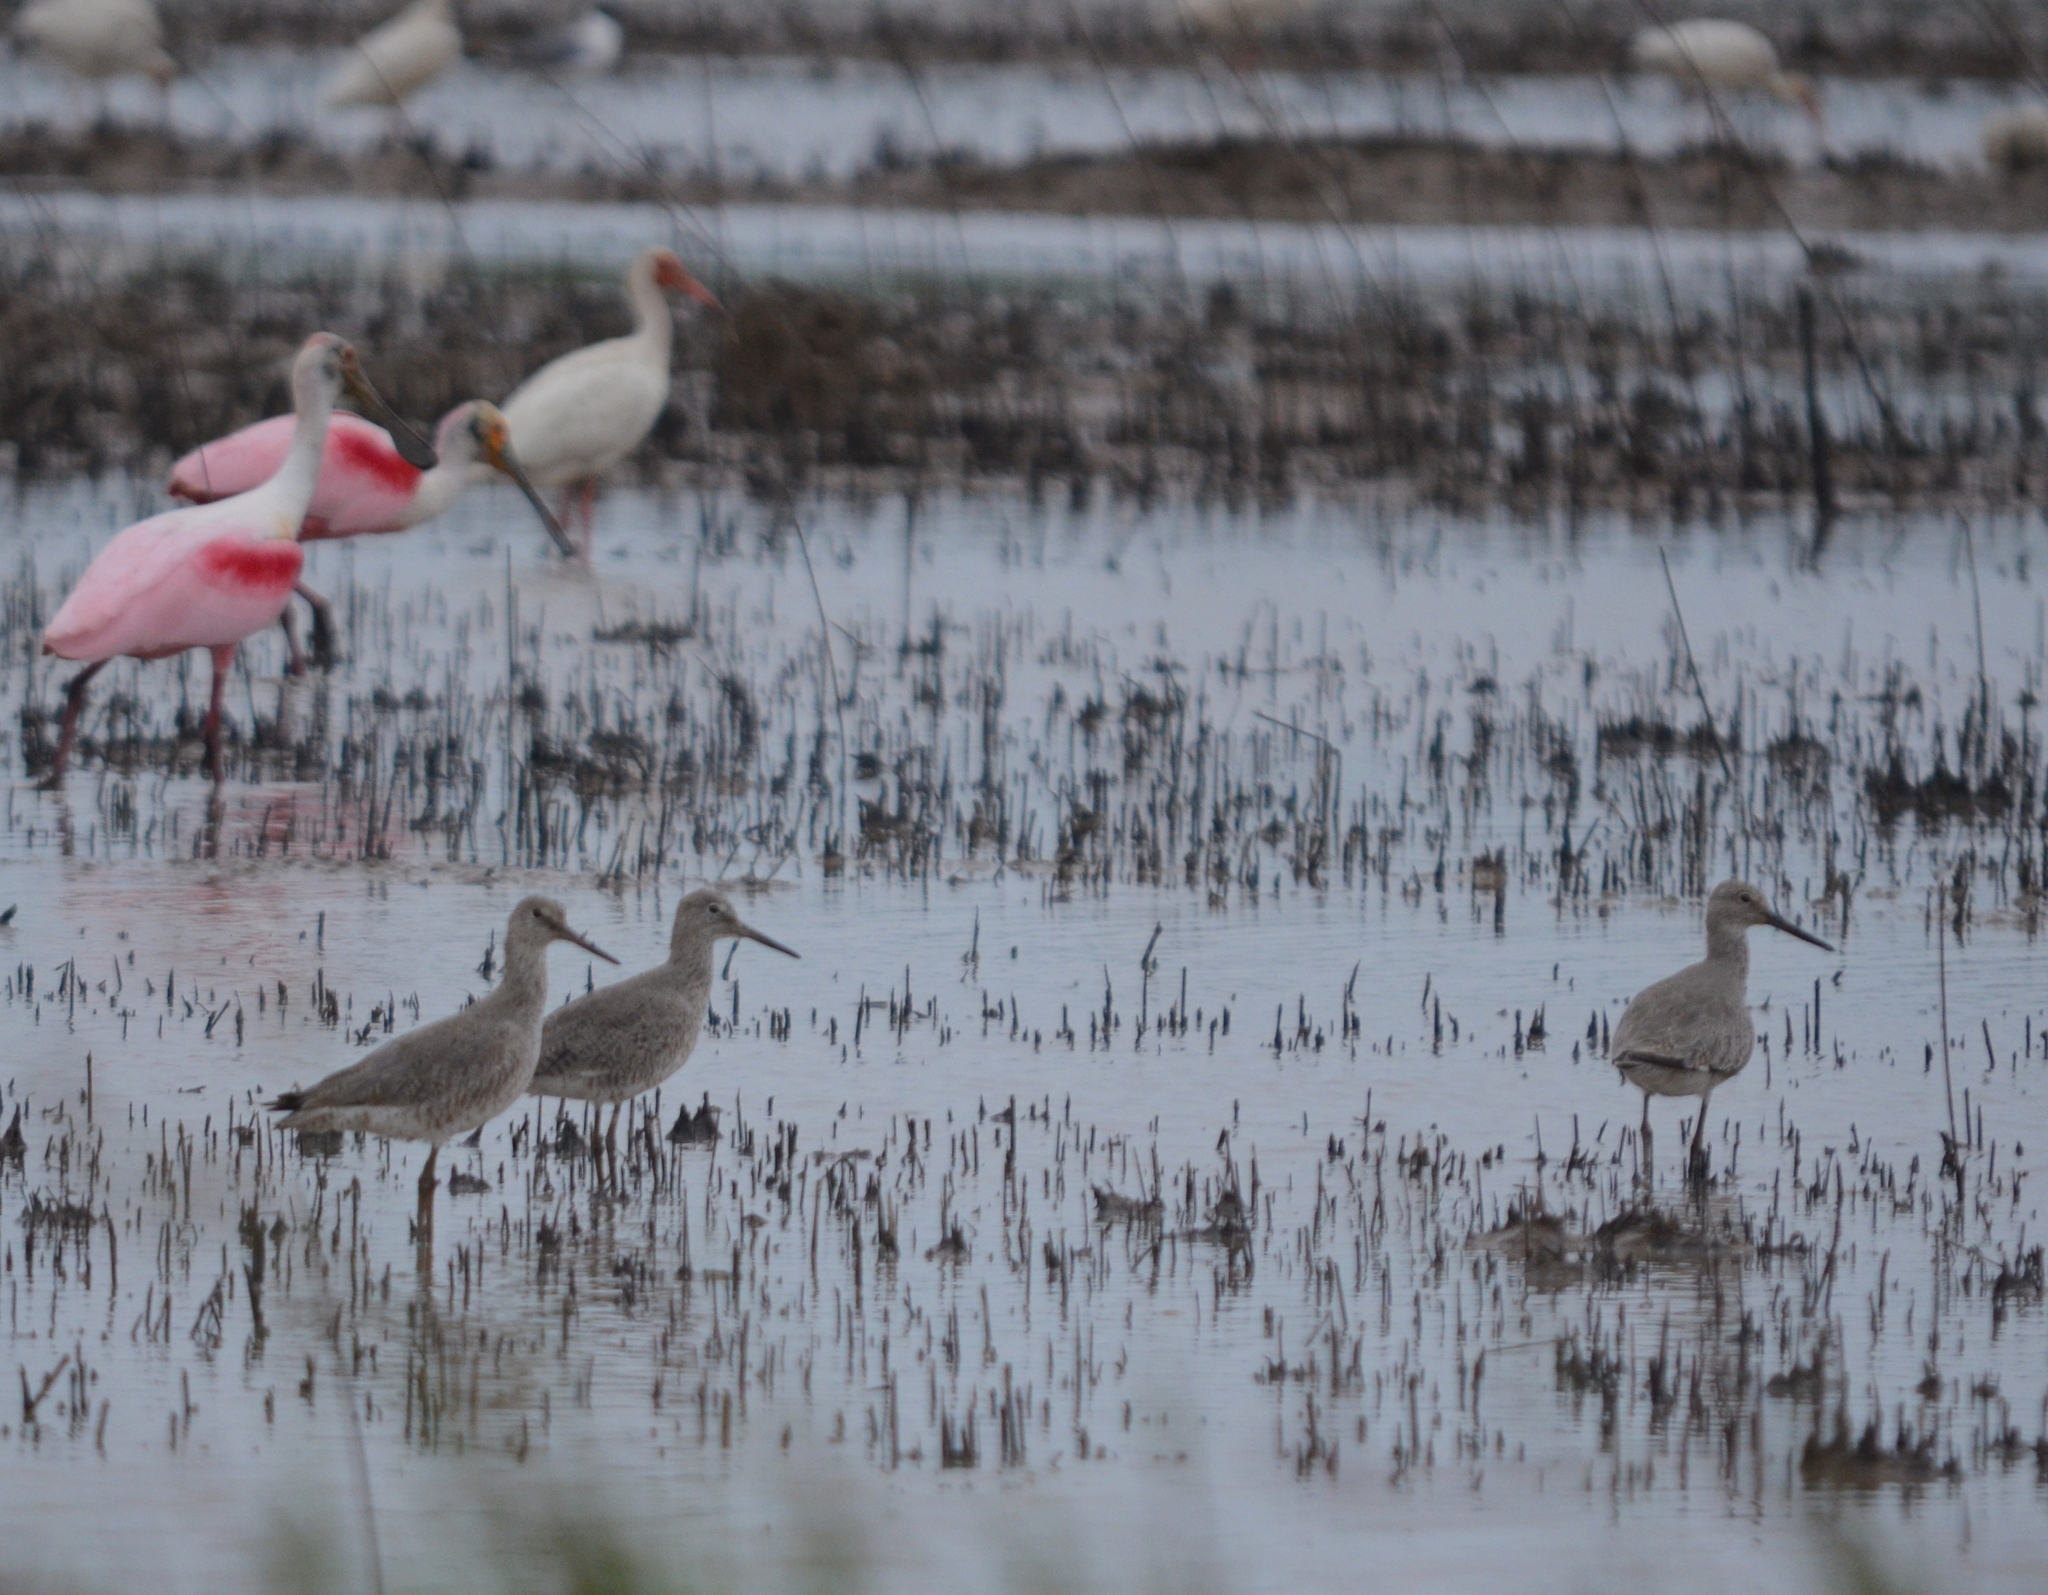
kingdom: Animalia
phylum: Chordata
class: Aves
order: Charadriiformes
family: Scolopacidae
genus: Tringa
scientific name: Tringa semipalmata
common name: Willet
